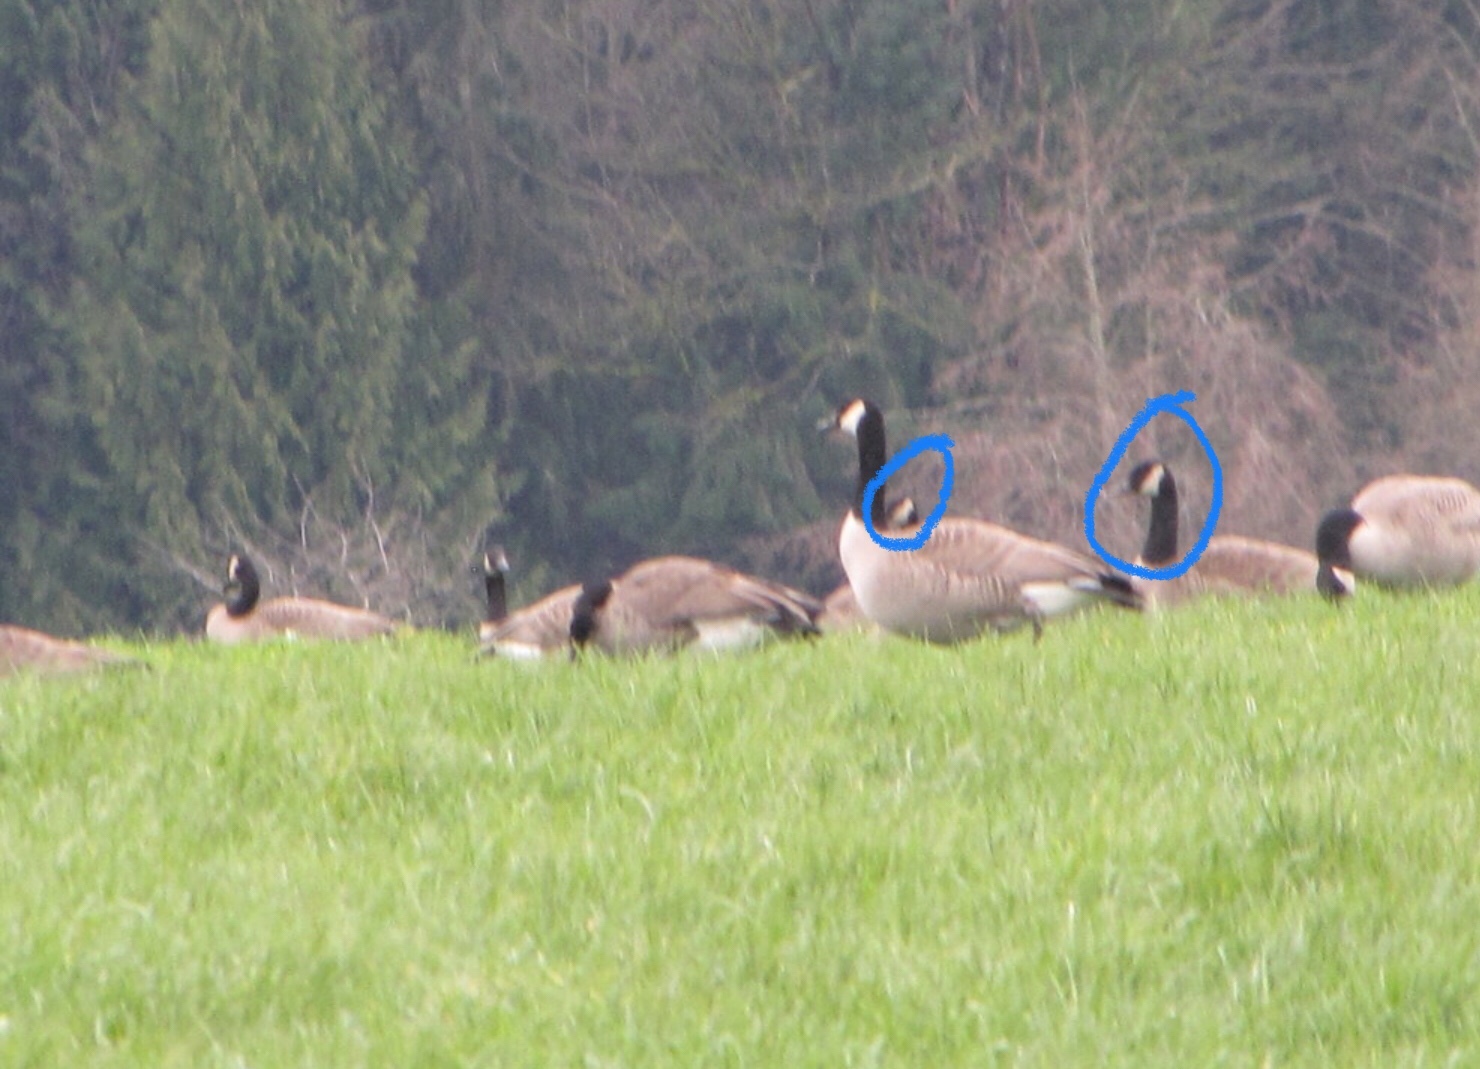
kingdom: Animalia
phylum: Chordata
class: Aves
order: Anseriformes
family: Anatidae
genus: Branta
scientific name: Branta hutchinsii
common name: Cackling goose
